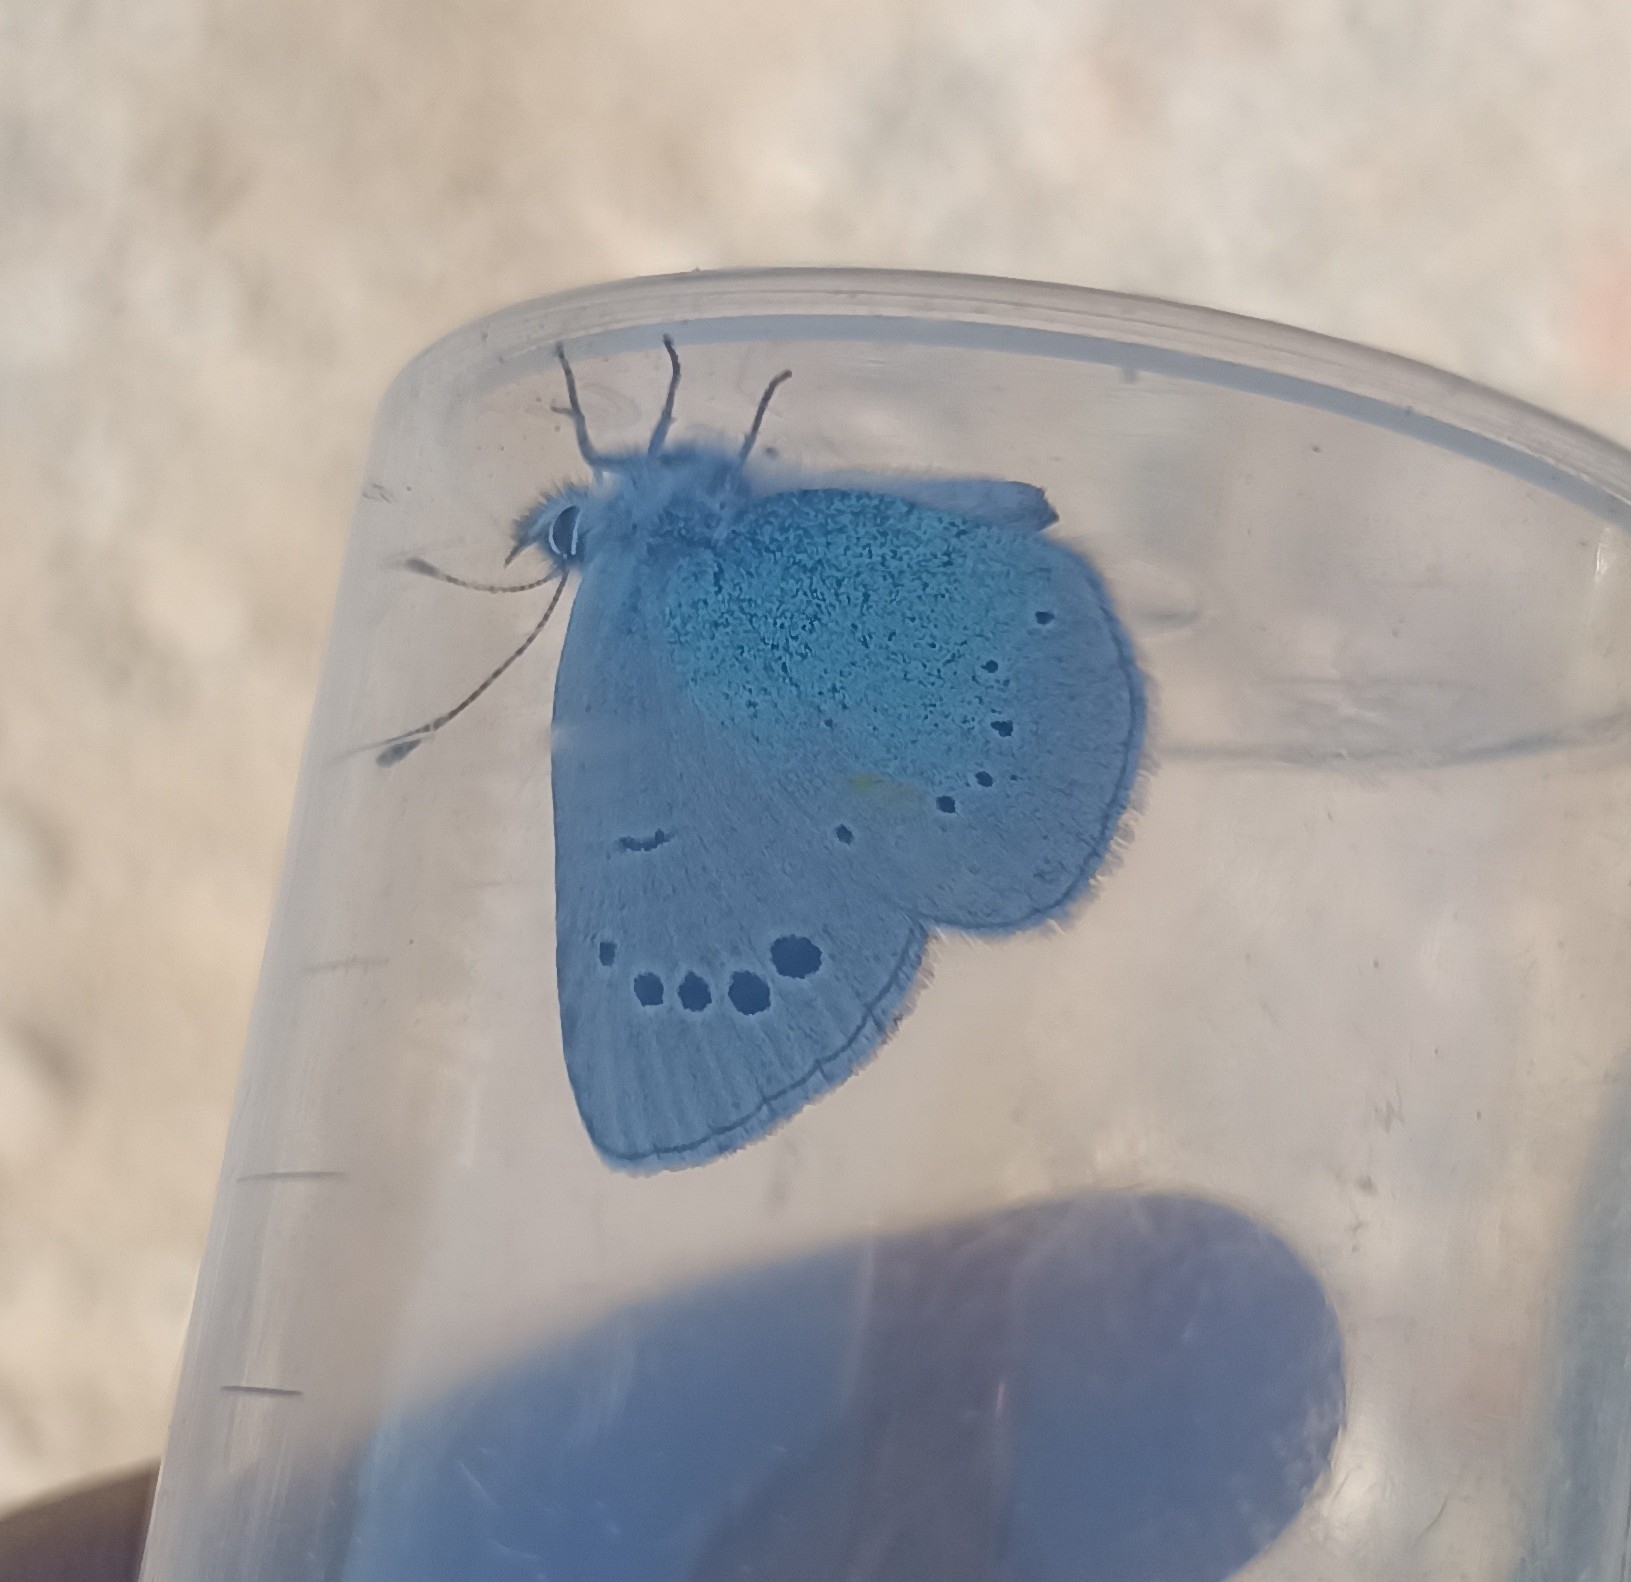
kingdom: Animalia
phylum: Arthropoda
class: Insecta
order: Lepidoptera
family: Lycaenidae
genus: Glaucopsyche
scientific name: Glaucopsyche alexis
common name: Green-underside blue
